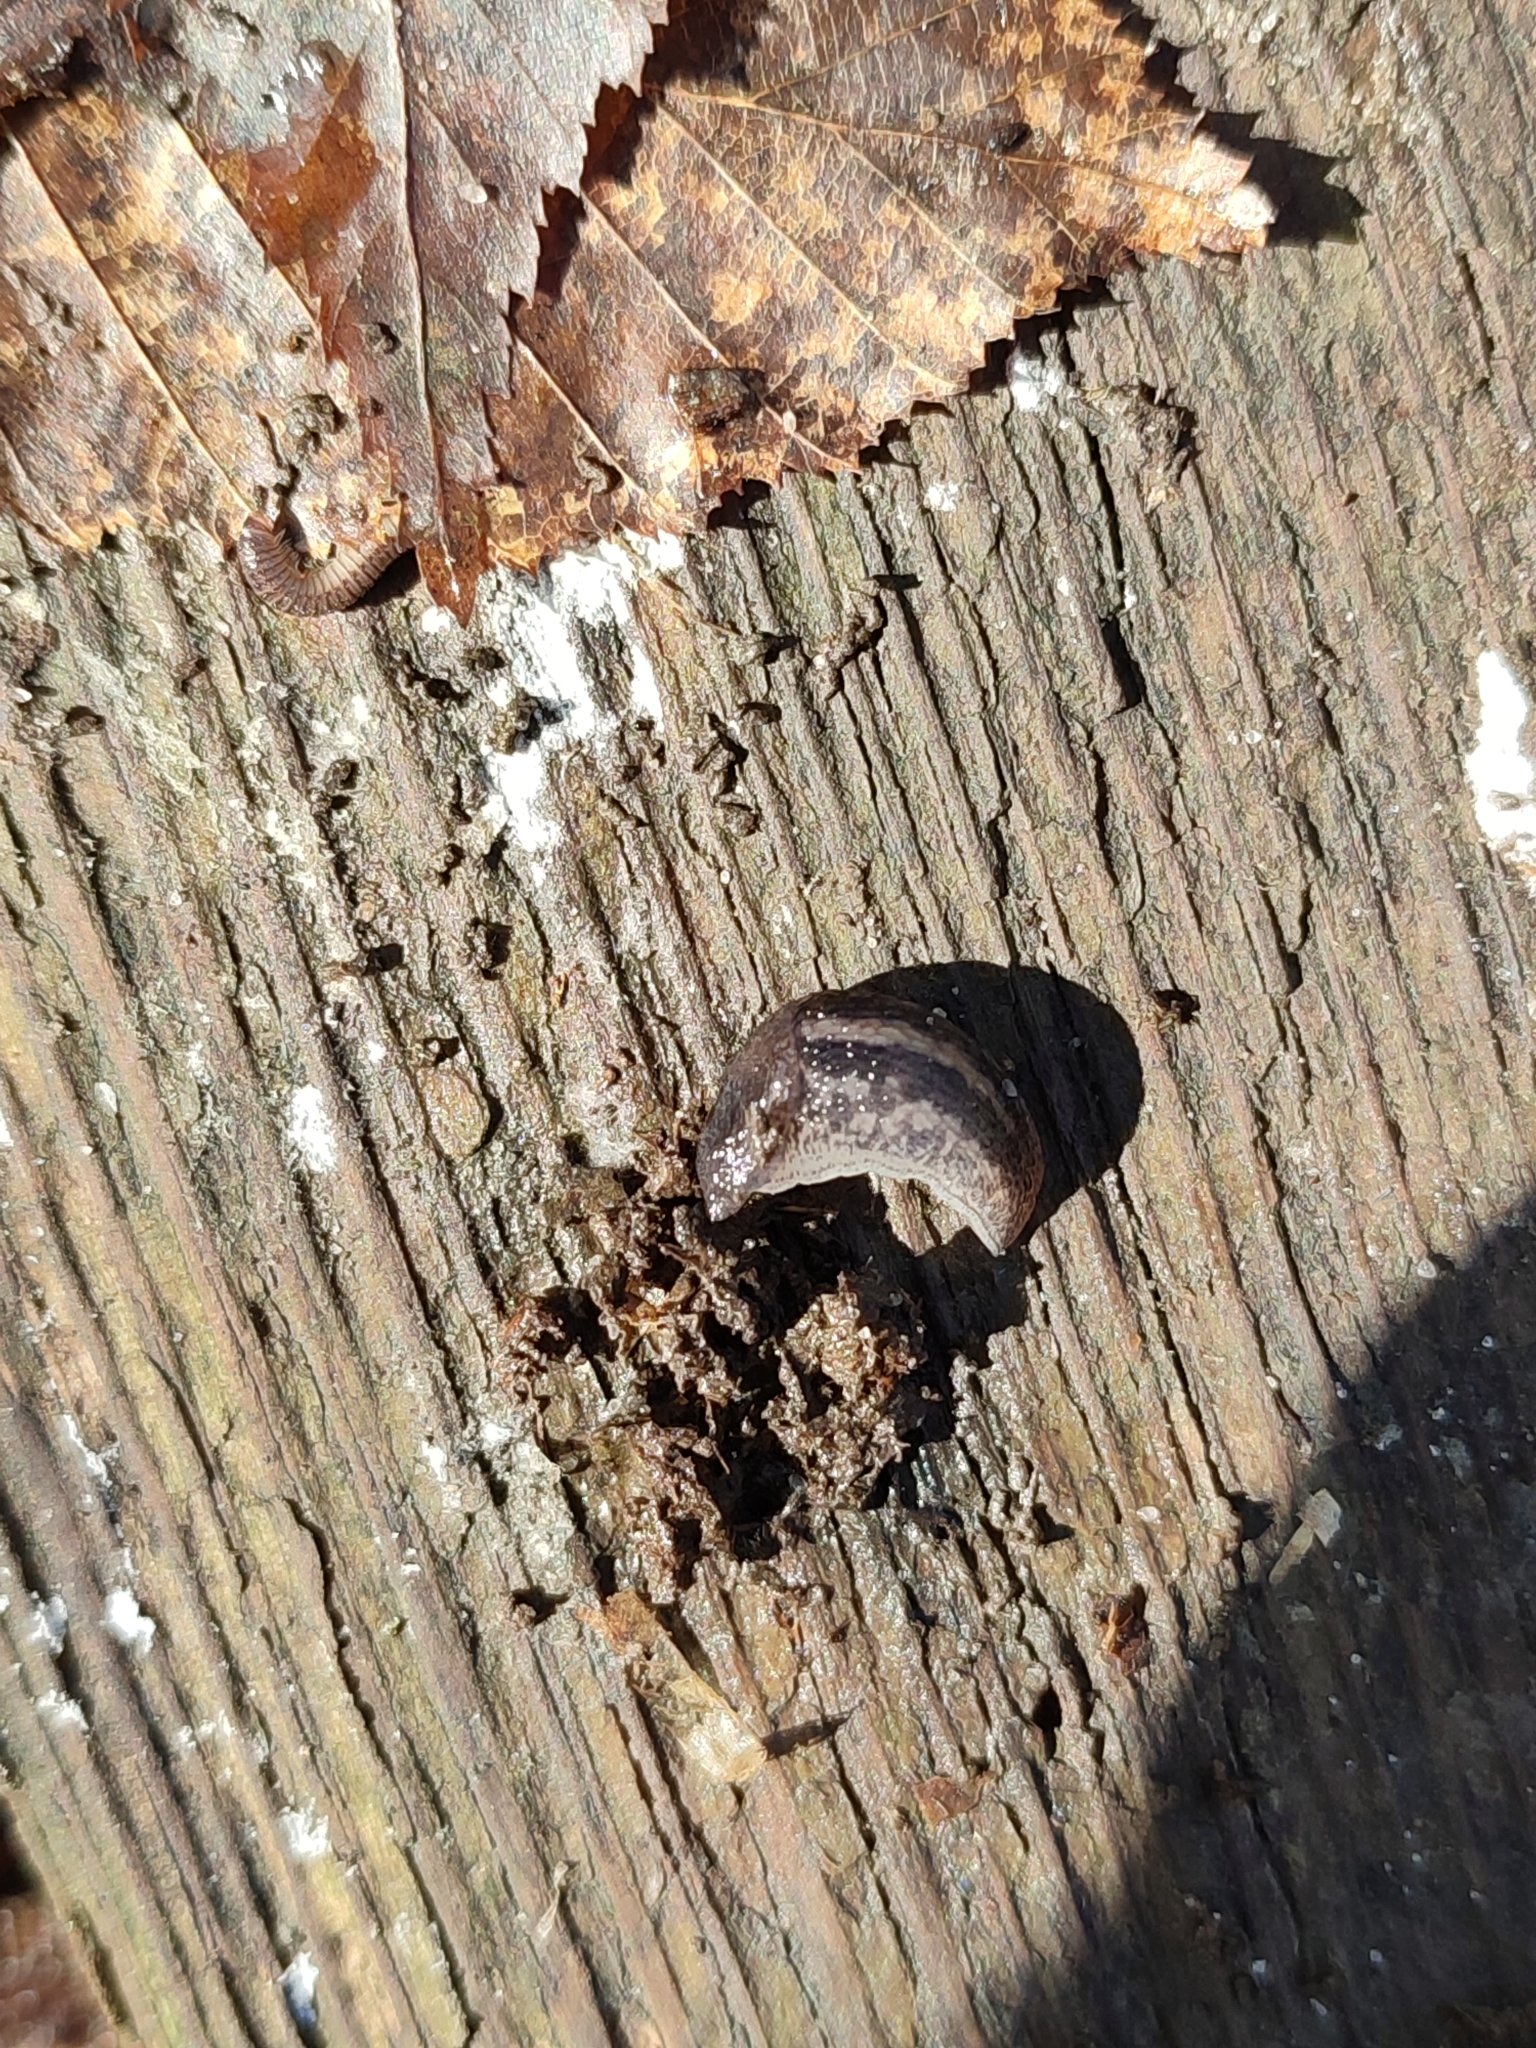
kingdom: Animalia
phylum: Mollusca
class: Gastropoda
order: Stylommatophora
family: Limacidae
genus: Limax
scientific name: Limax maximus
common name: Great grey slug
